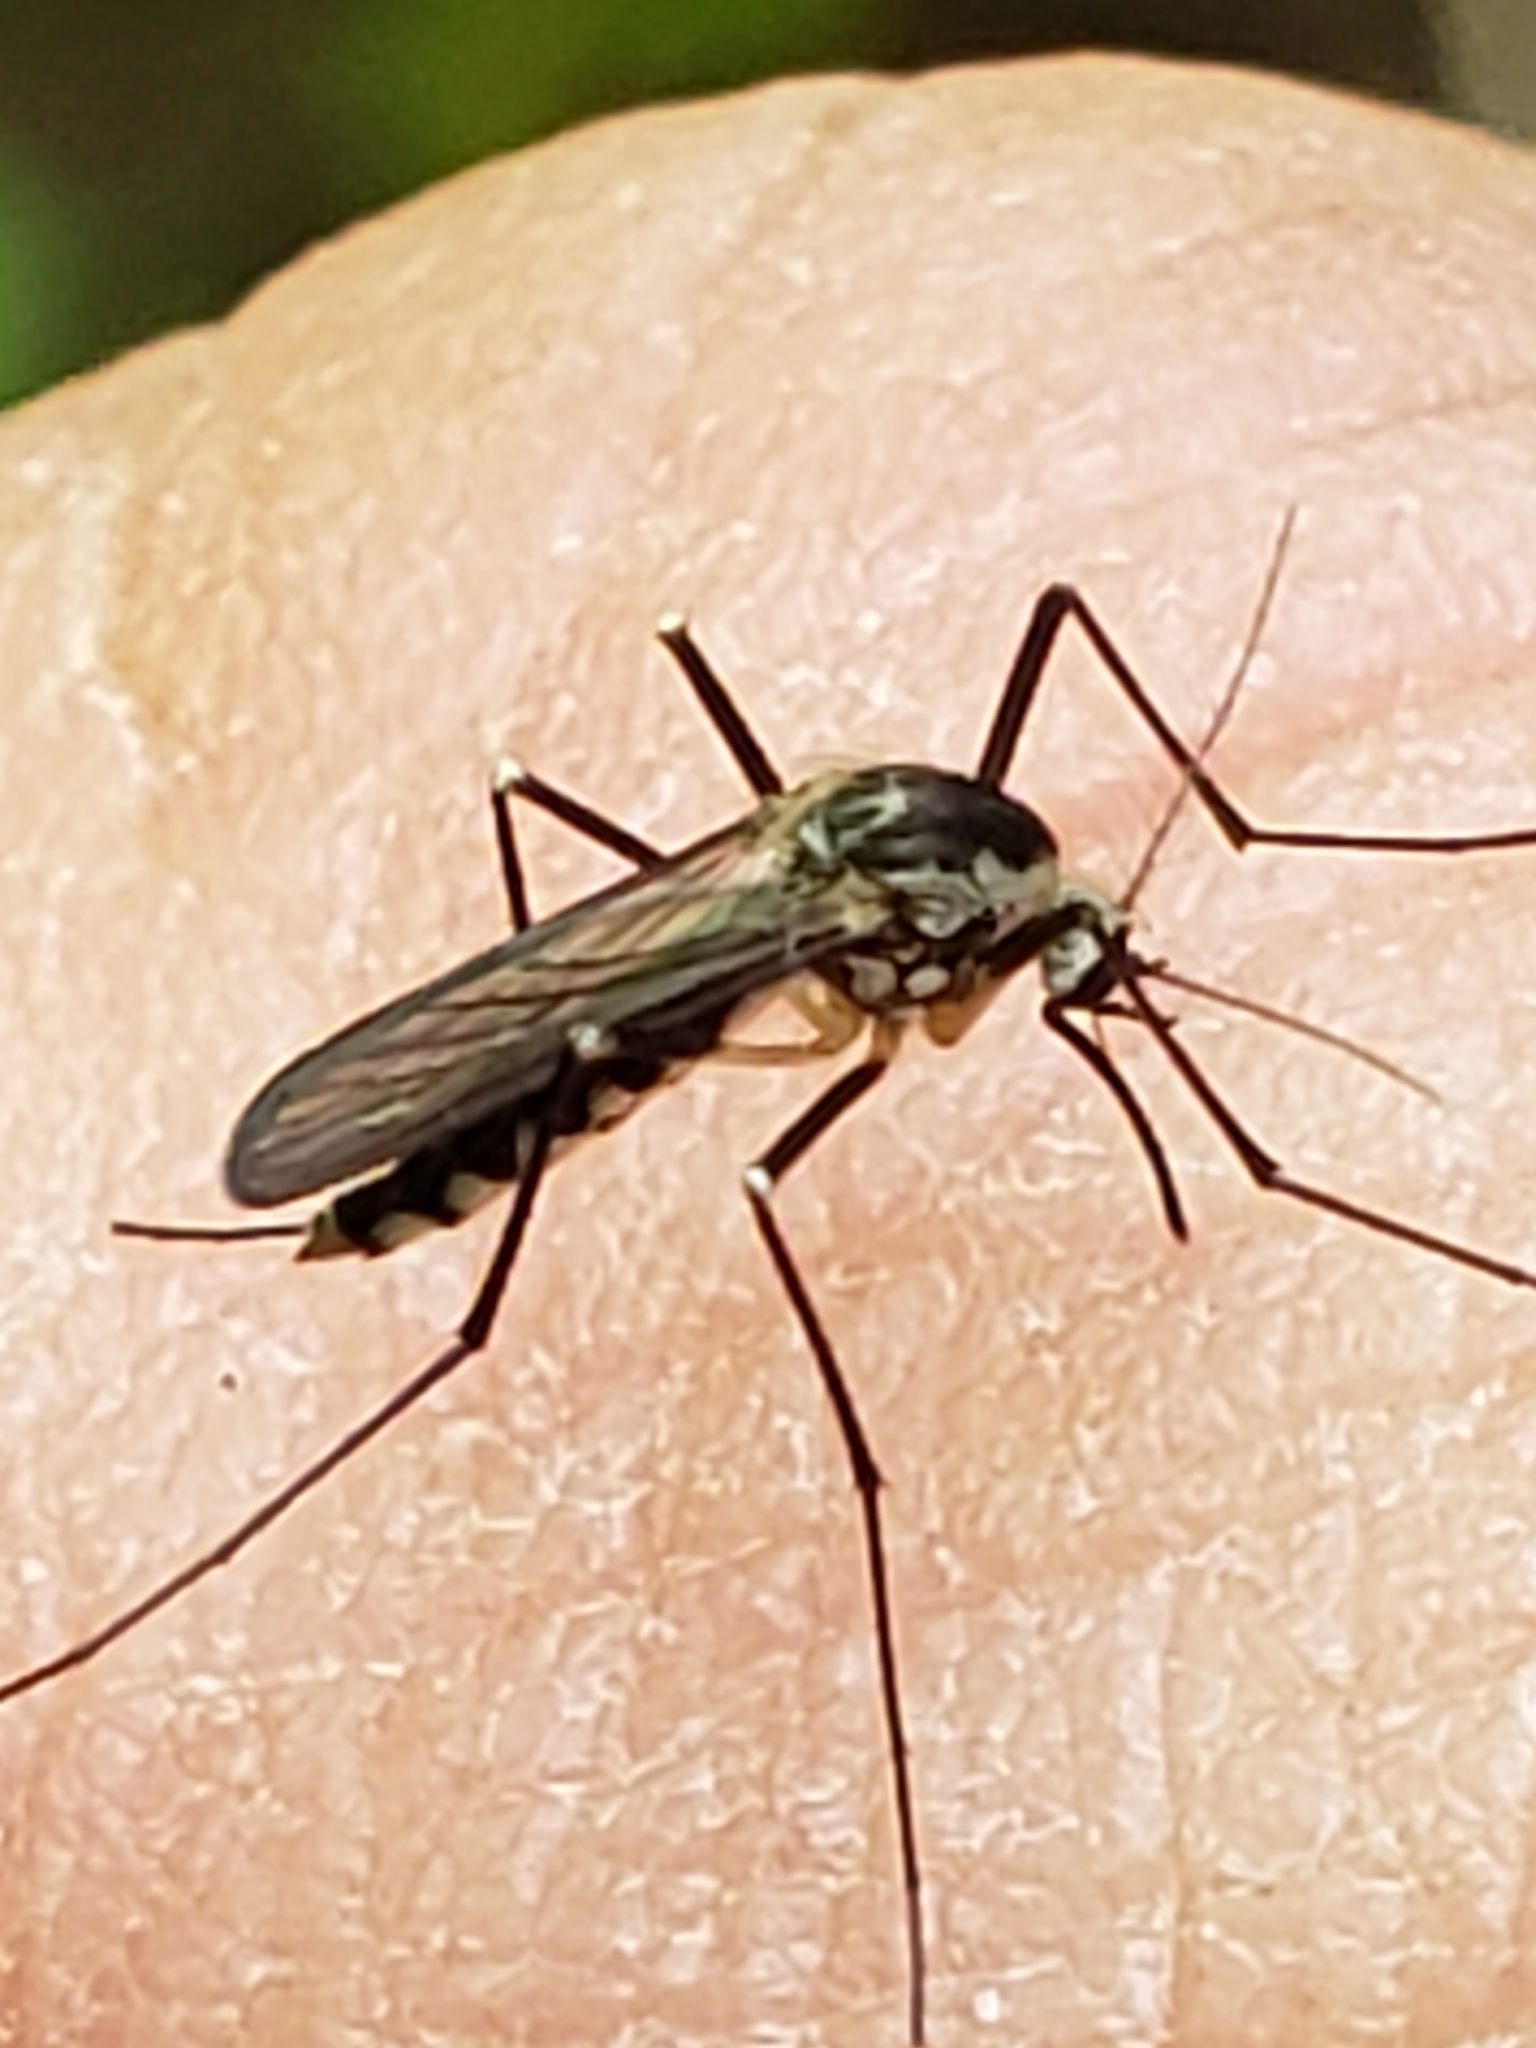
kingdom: Animalia
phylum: Arthropoda
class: Insecta
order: Diptera
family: Culicidae
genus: Aedes
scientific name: Aedes triseriatus
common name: Eastern treehole mosquito
